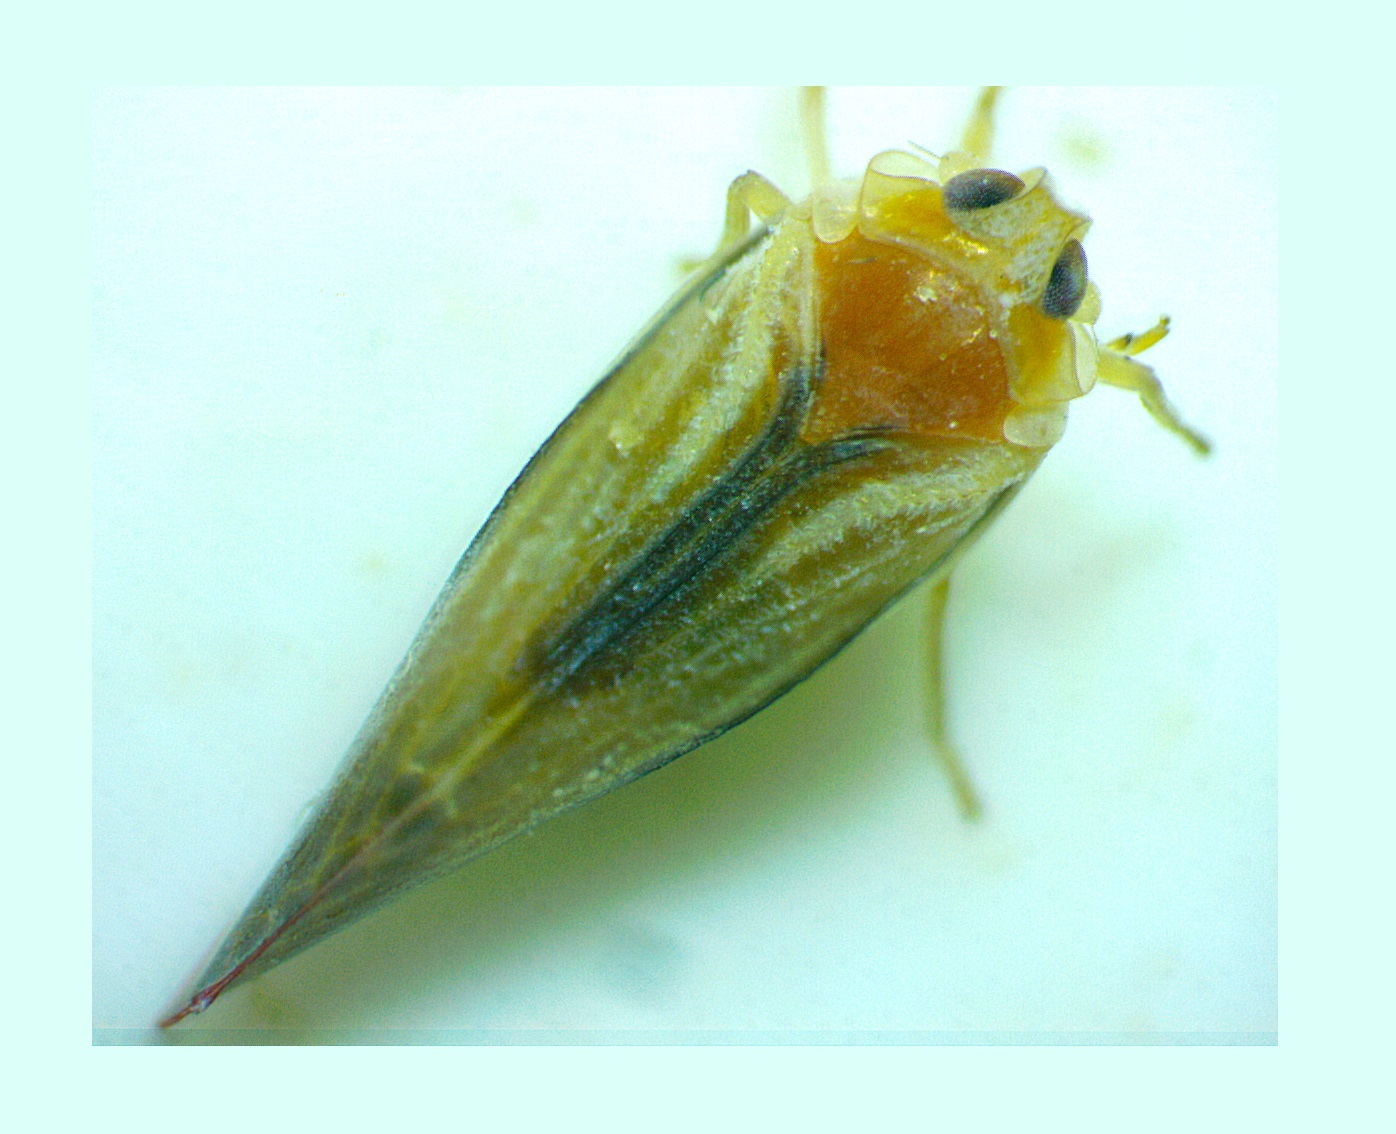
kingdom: Animalia
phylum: Arthropoda
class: Insecta
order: Hemiptera
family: Derbidae
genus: Omolicna
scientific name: Omolicna uhleri
